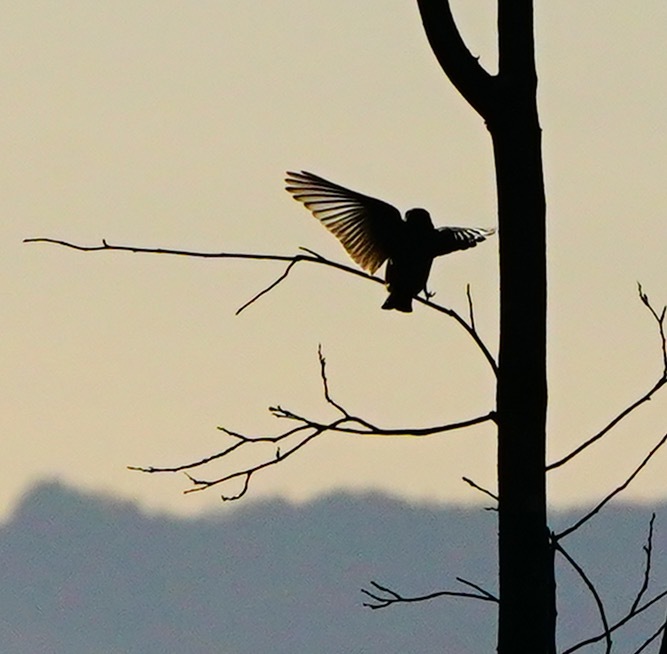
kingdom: Animalia
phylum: Chordata
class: Aves
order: Passeriformes
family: Turdidae
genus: Sialia
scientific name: Sialia mexicana
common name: Western bluebird
